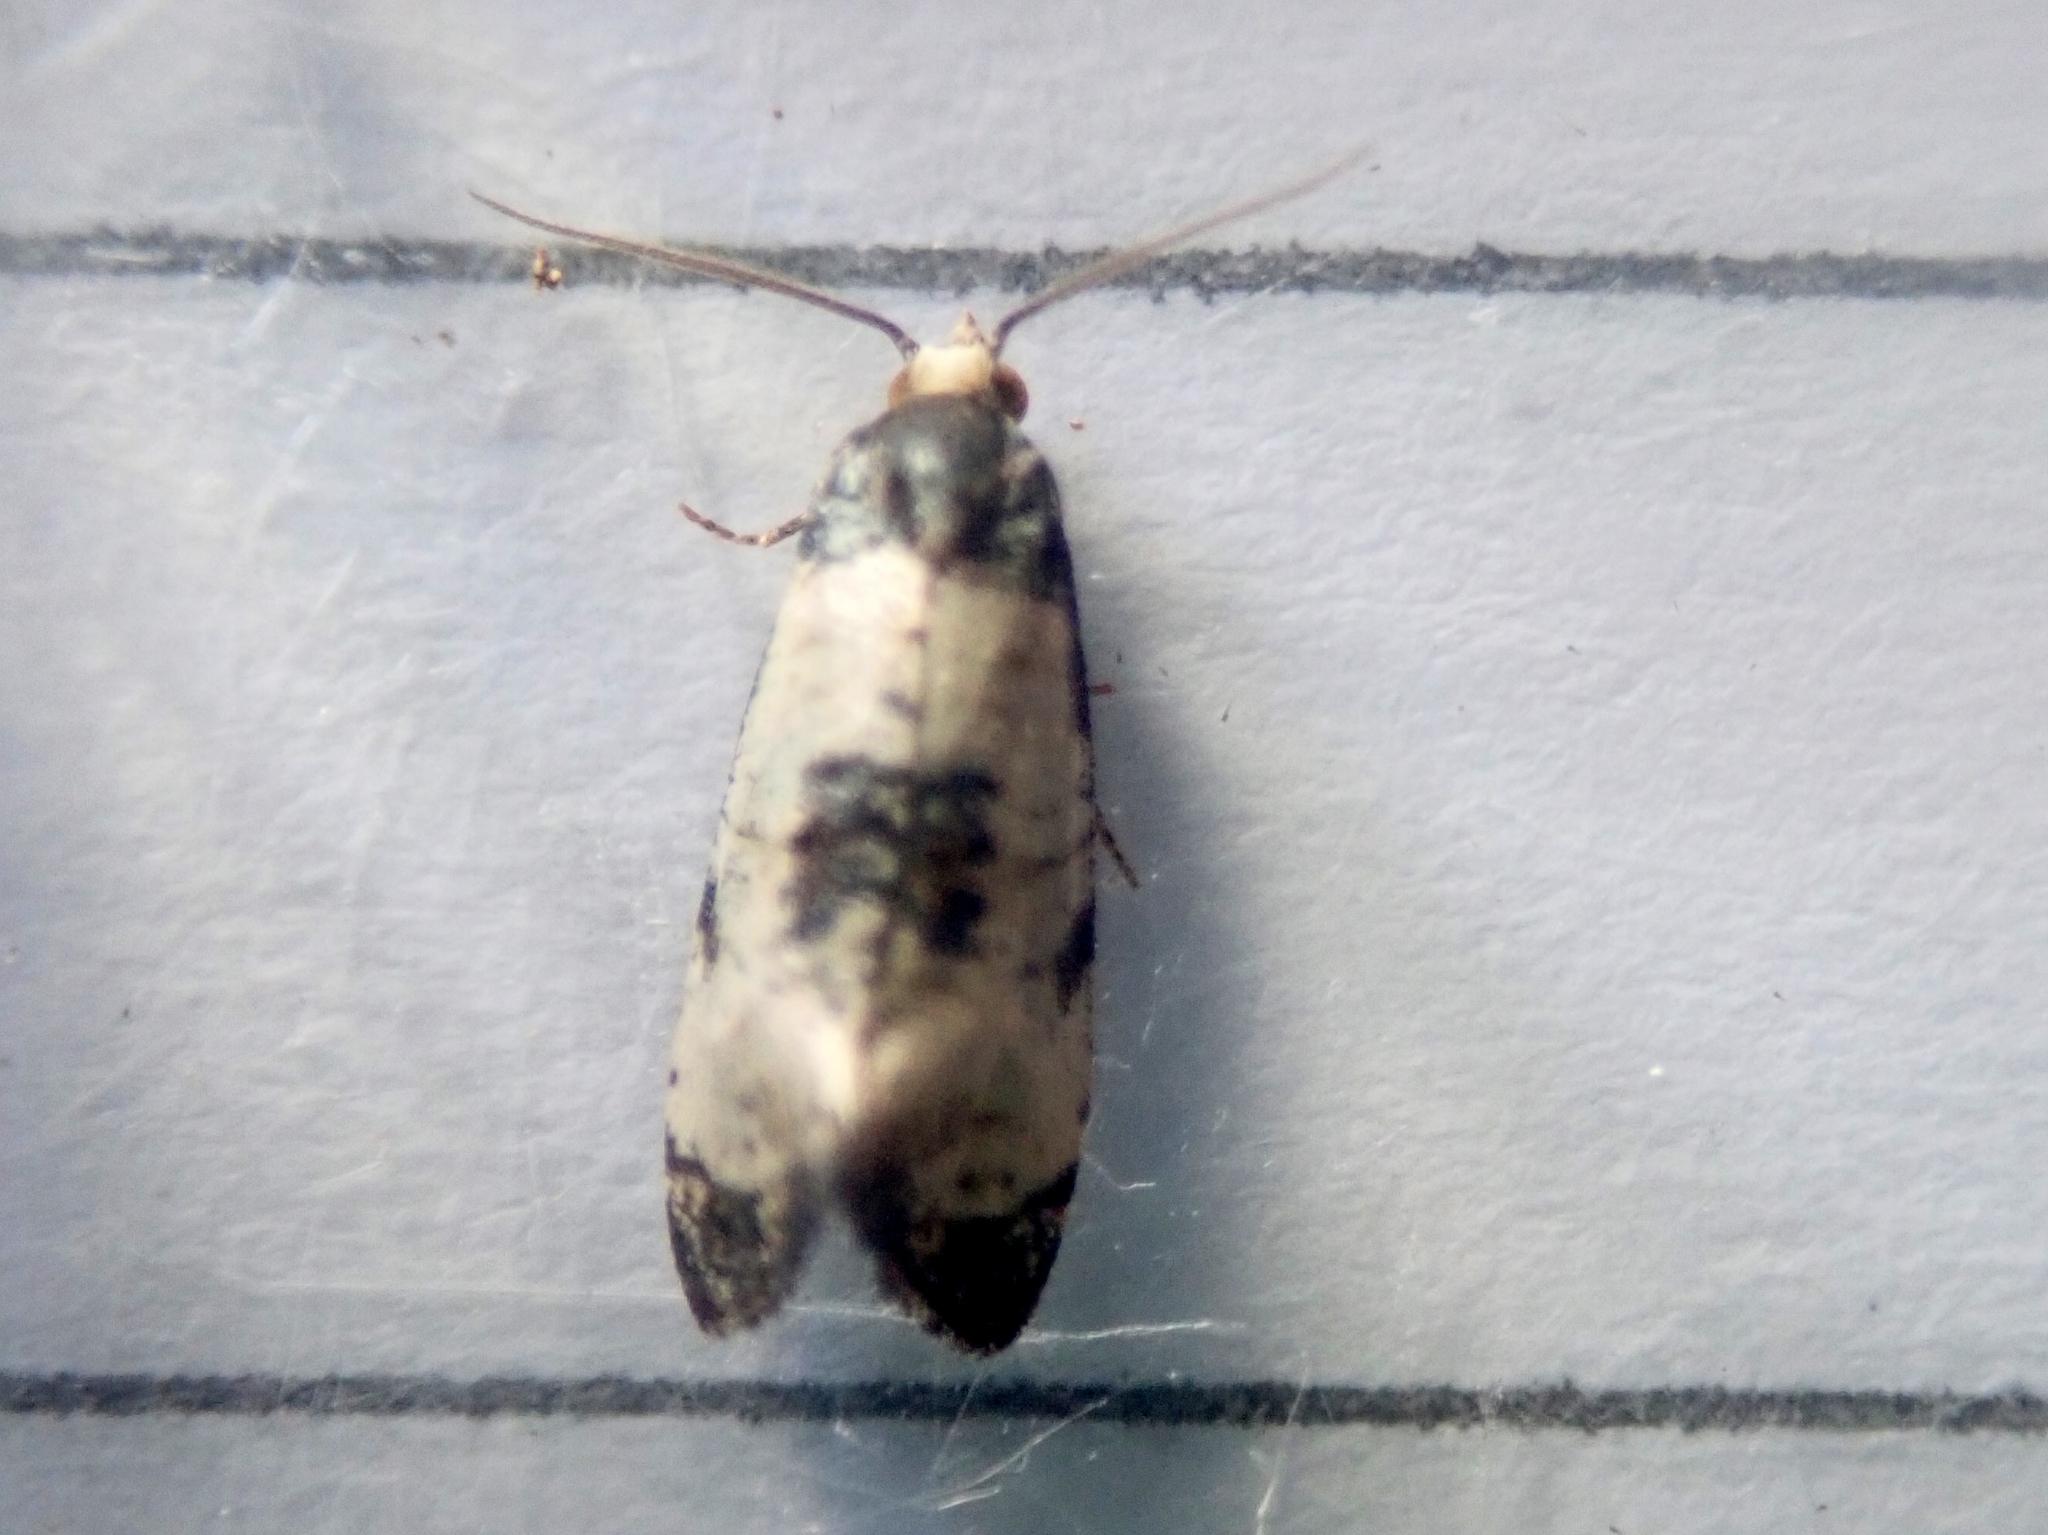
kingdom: Animalia
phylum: Arthropoda
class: Insecta
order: Lepidoptera
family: Tortricidae
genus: Cochylis
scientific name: Cochylis dubitana
